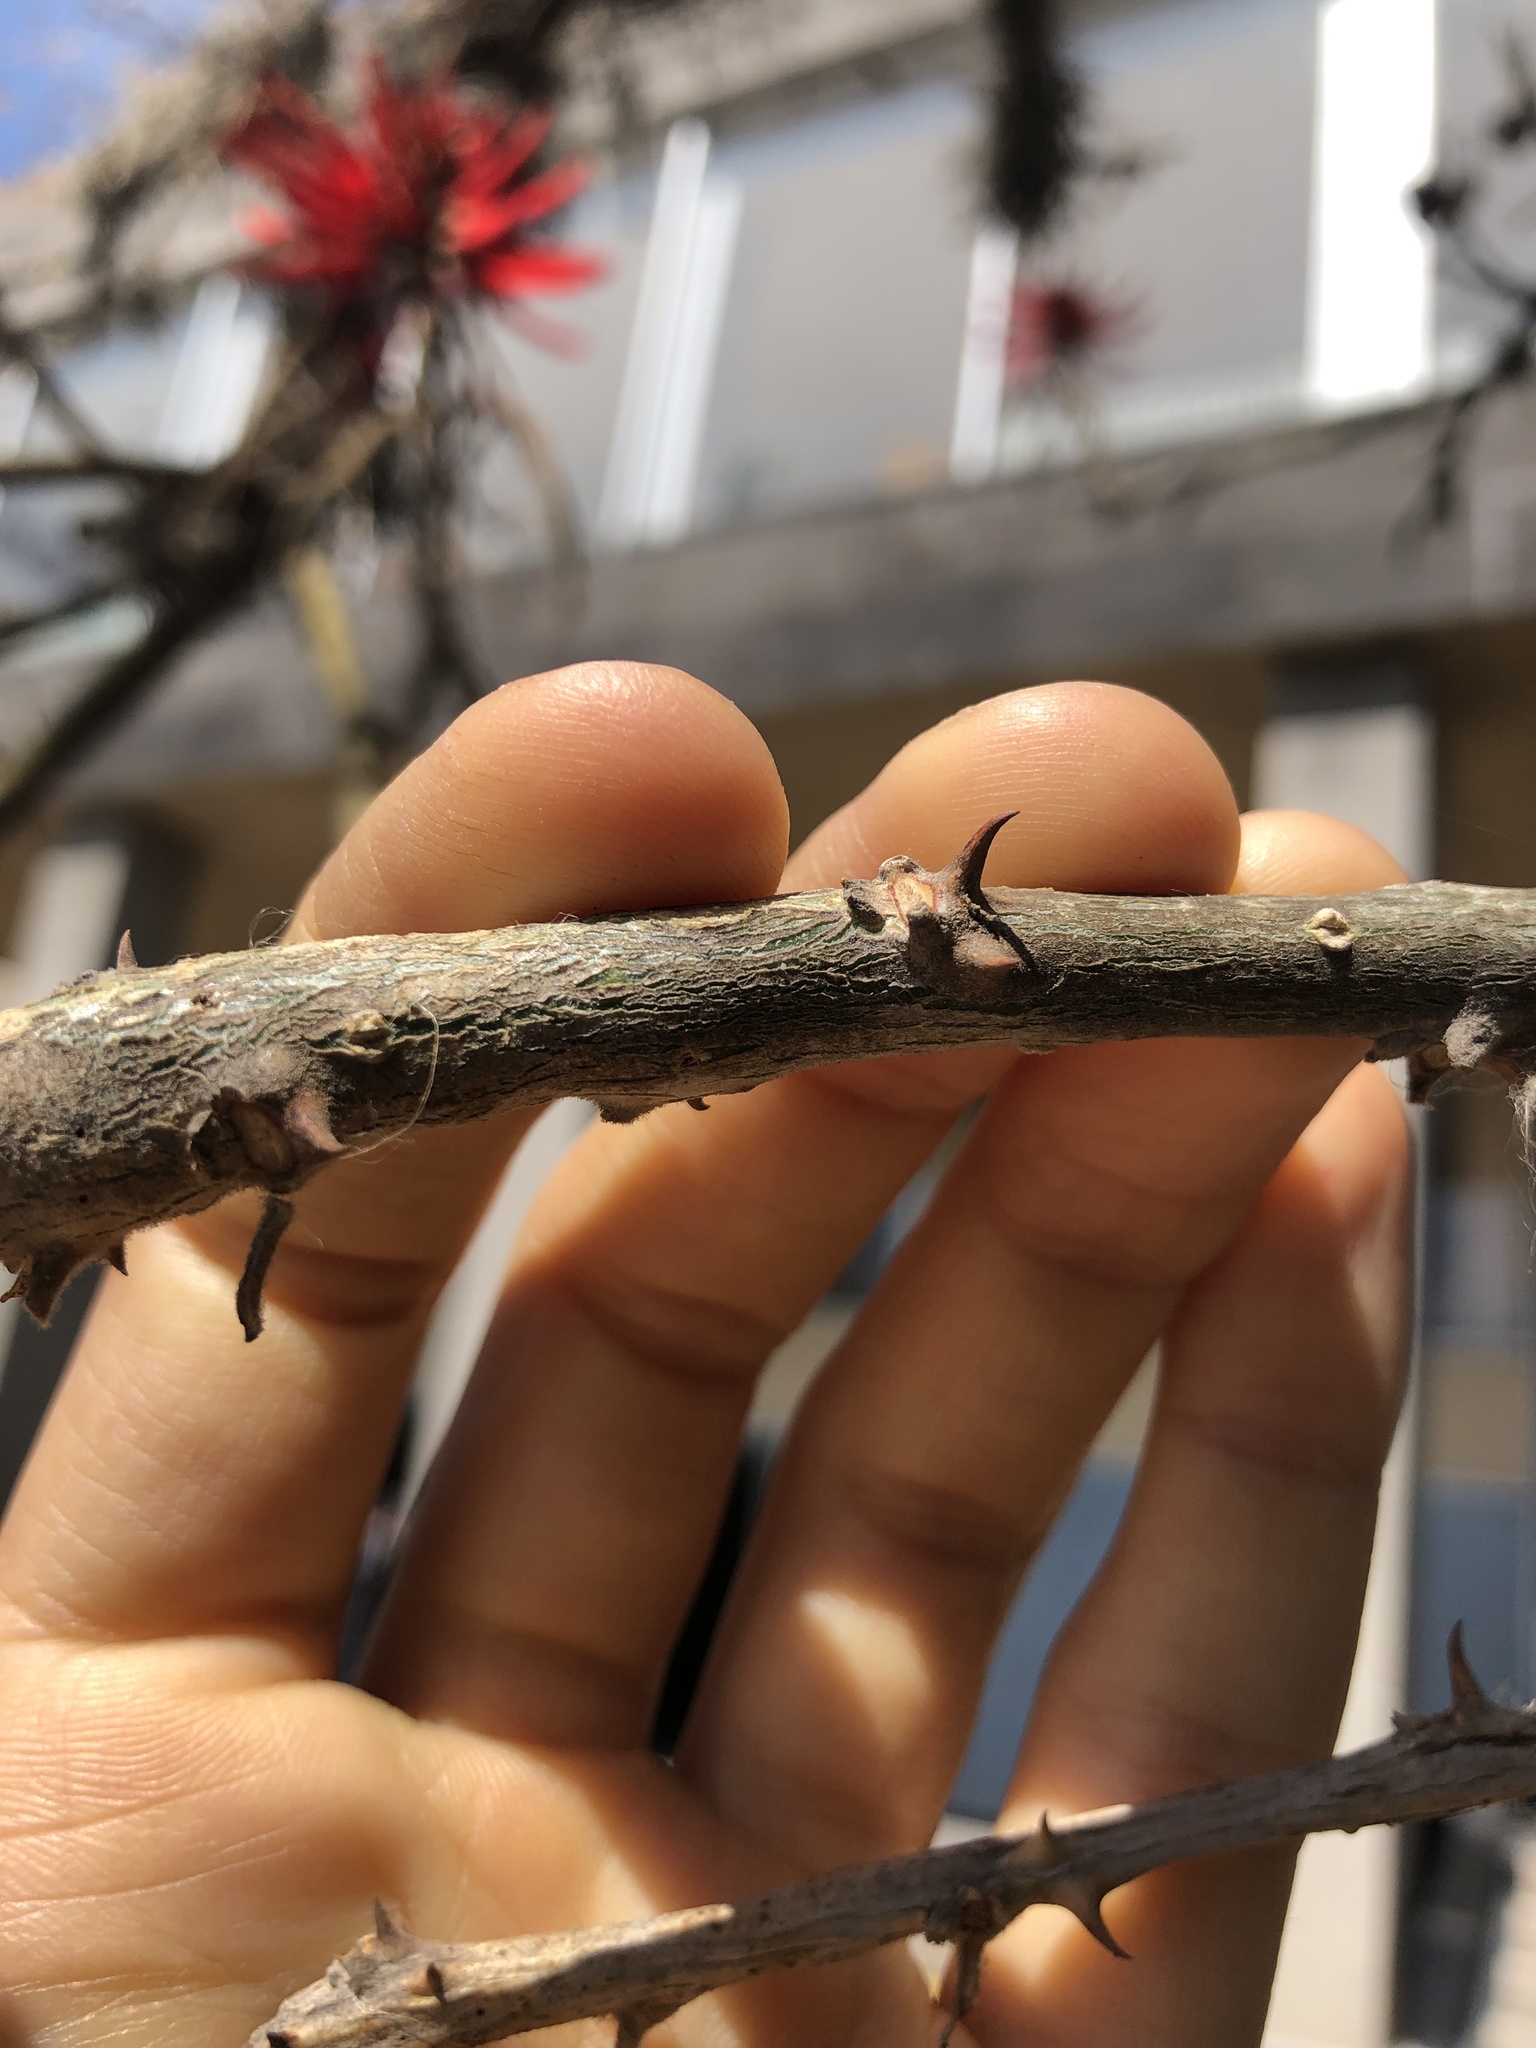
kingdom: Plantae
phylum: Tracheophyta
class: Magnoliopsida
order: Fabales
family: Fabaceae
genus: Erythrina
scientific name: Erythrina americana
